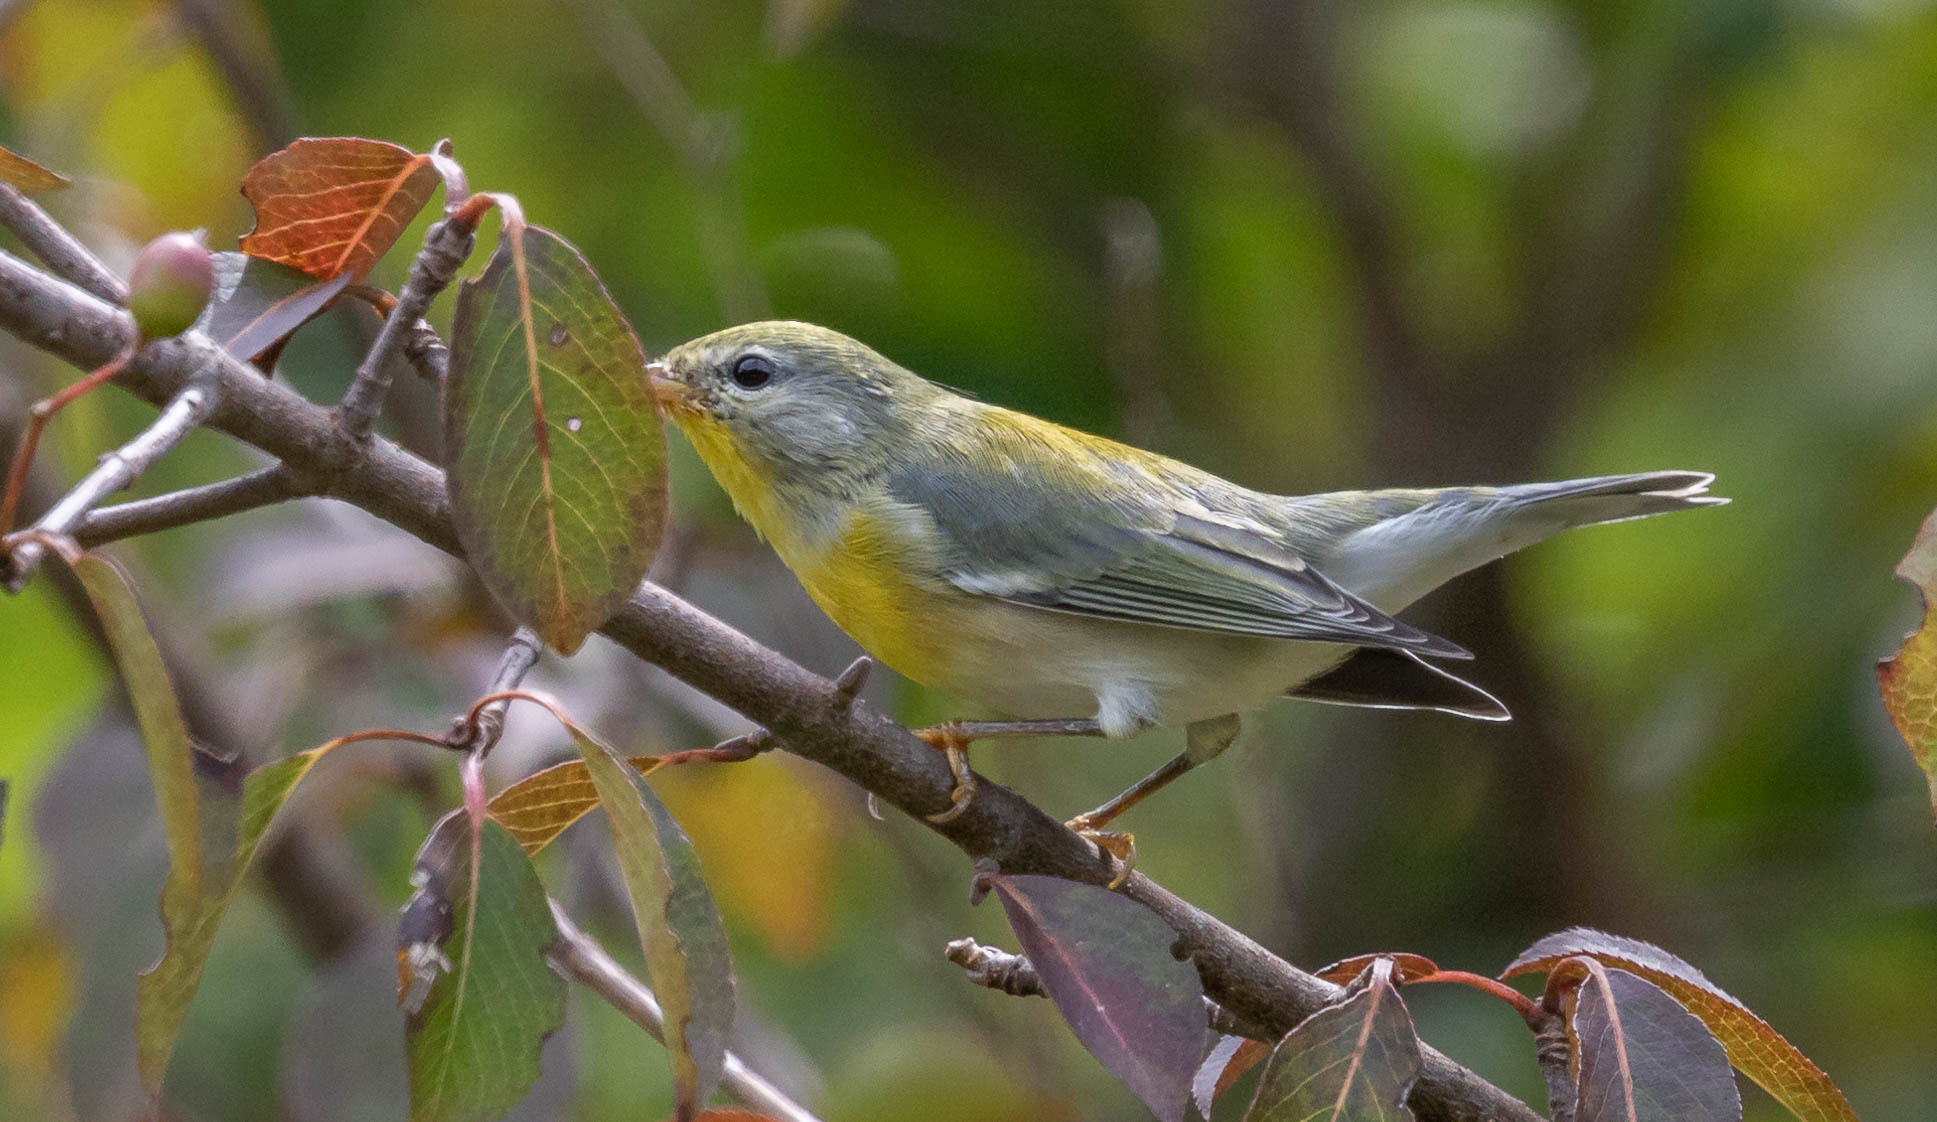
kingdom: Animalia
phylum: Chordata
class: Aves
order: Passeriformes
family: Parulidae
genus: Setophaga
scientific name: Setophaga americana
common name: Northern parula
